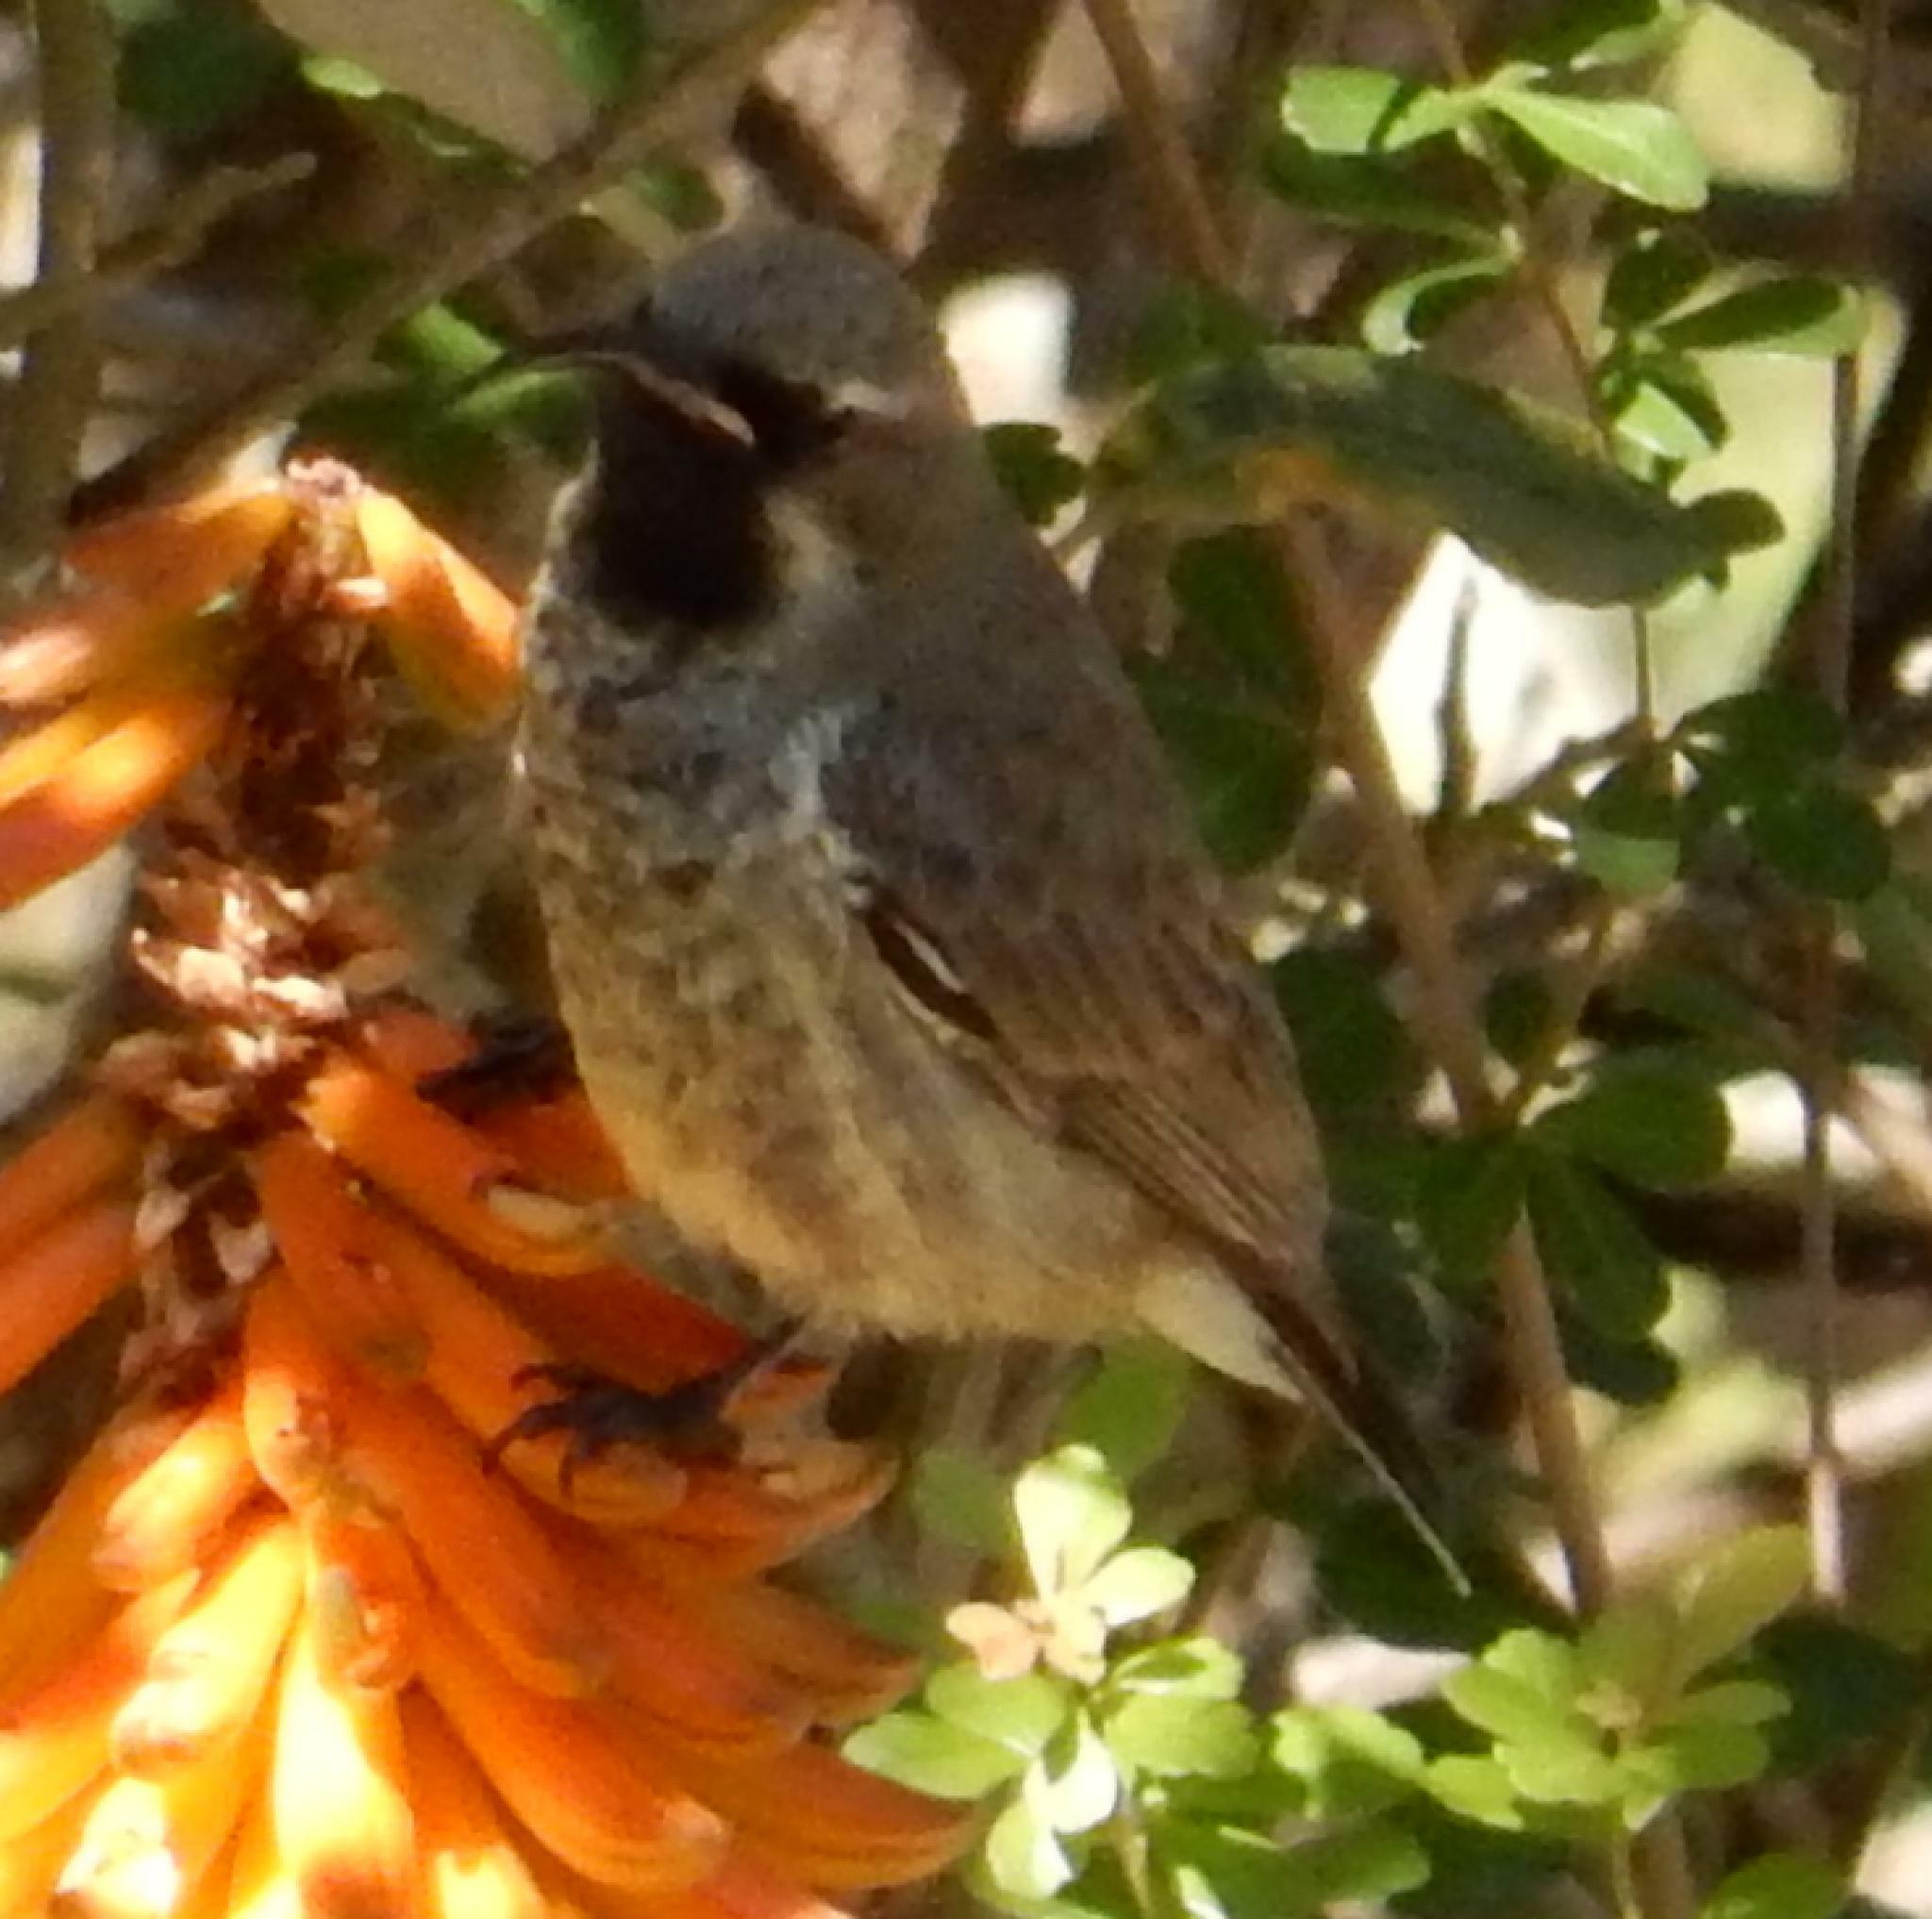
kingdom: Animalia
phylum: Chordata
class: Aves
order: Passeriformes
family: Nectariniidae
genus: Chalcomitra
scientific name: Chalcomitra amethystina
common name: Amethyst sunbird
